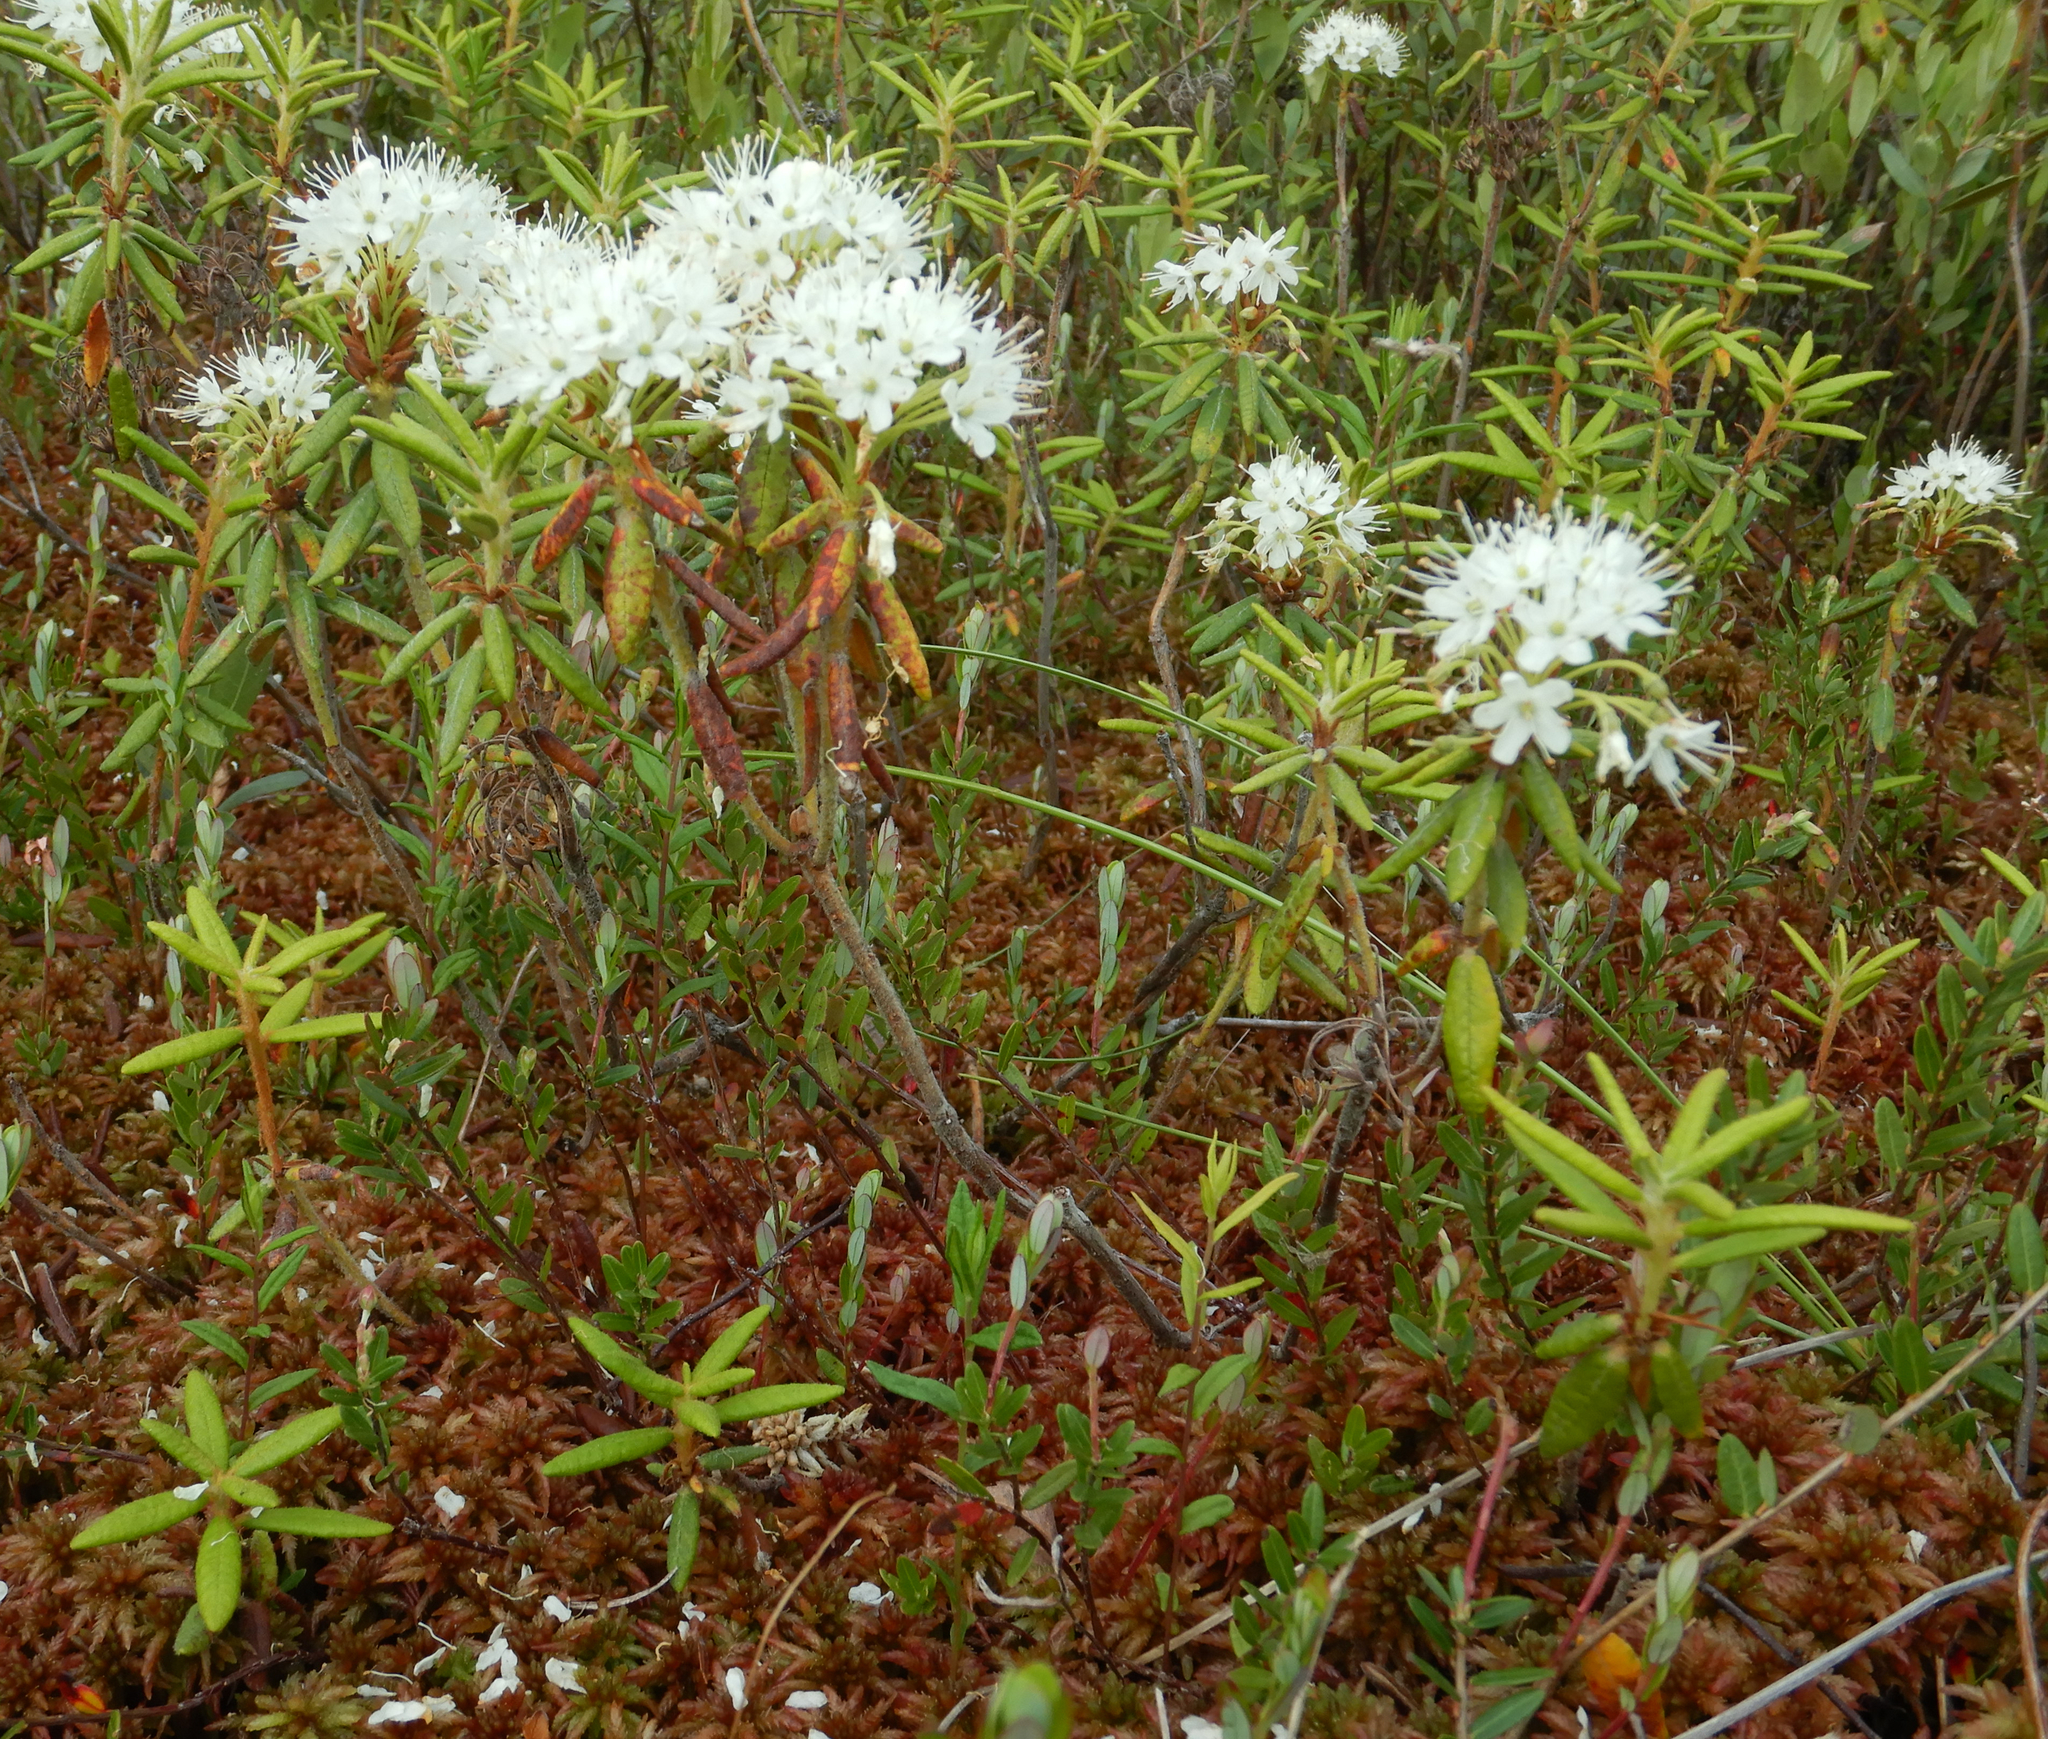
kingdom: Plantae
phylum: Tracheophyta
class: Magnoliopsida
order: Ericales
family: Ericaceae
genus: Rhododendron
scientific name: Rhododendron groenlandicum
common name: Bog labrador tea
